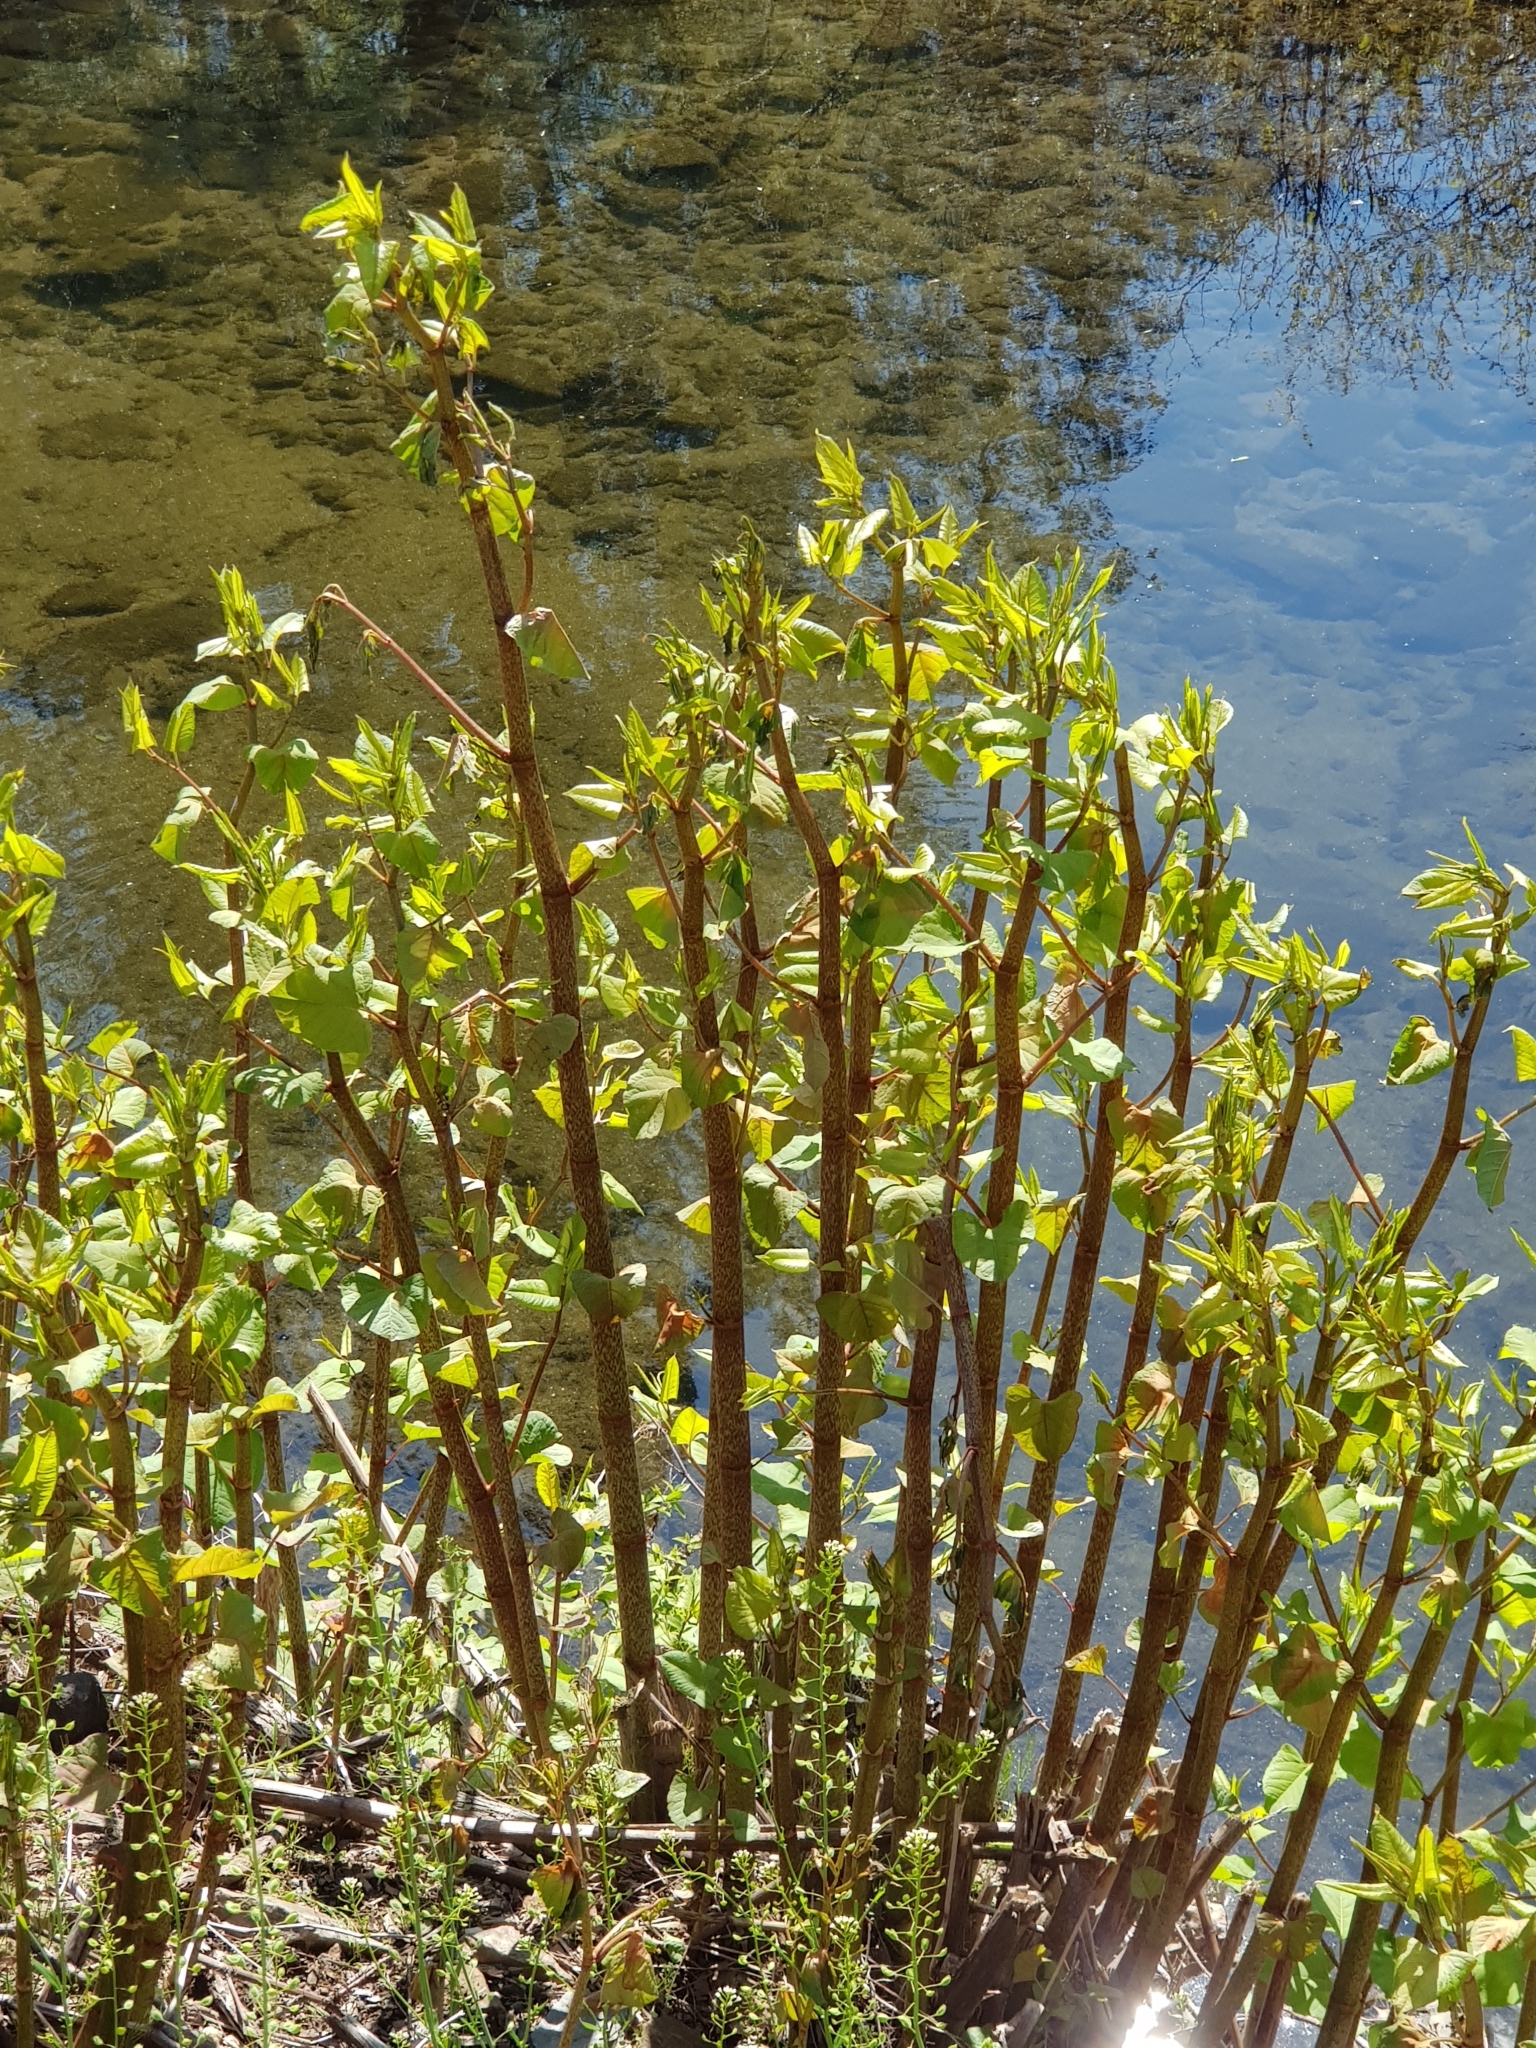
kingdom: Plantae
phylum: Tracheophyta
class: Magnoliopsida
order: Caryophyllales
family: Polygonaceae
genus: Reynoutria
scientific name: Reynoutria japonica
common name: Japanese knotweed
